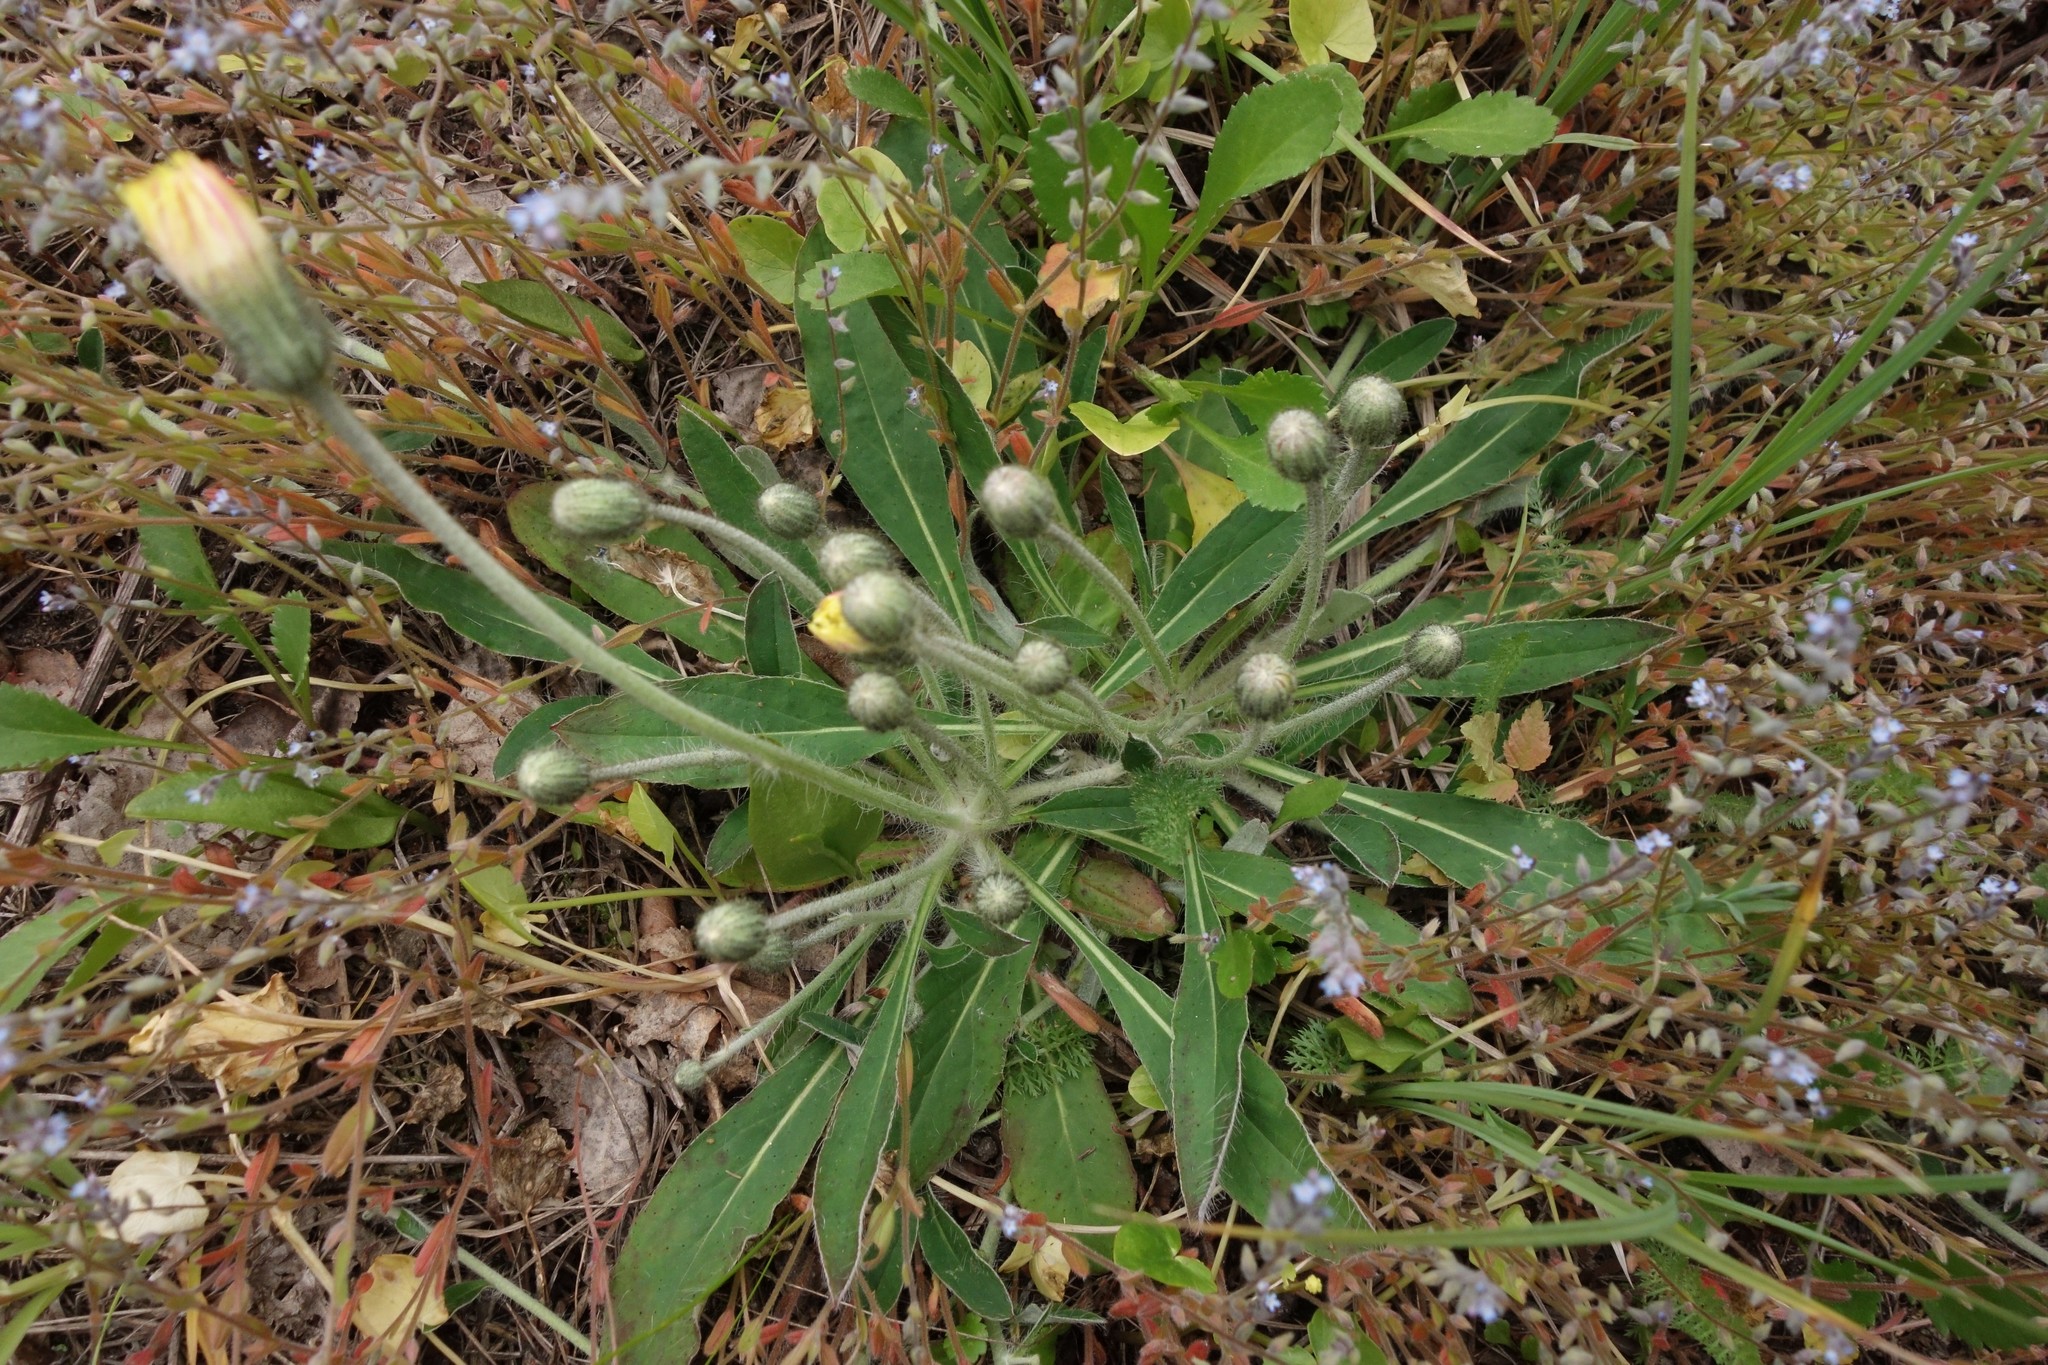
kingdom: Plantae
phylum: Tracheophyta
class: Magnoliopsida
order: Asterales
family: Asteraceae
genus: Pilosella
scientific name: Pilosella officinarum
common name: Mouse-ear hawkweed
